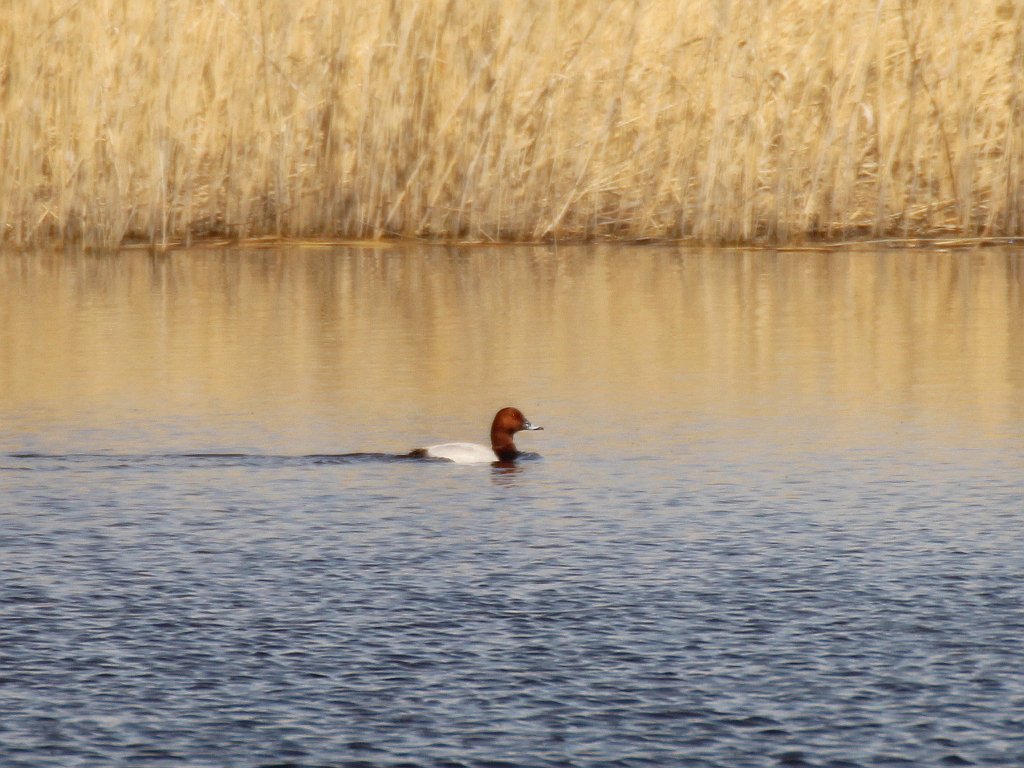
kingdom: Animalia
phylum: Chordata
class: Aves
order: Anseriformes
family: Anatidae
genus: Aythya
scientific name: Aythya ferina
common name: Common pochard
